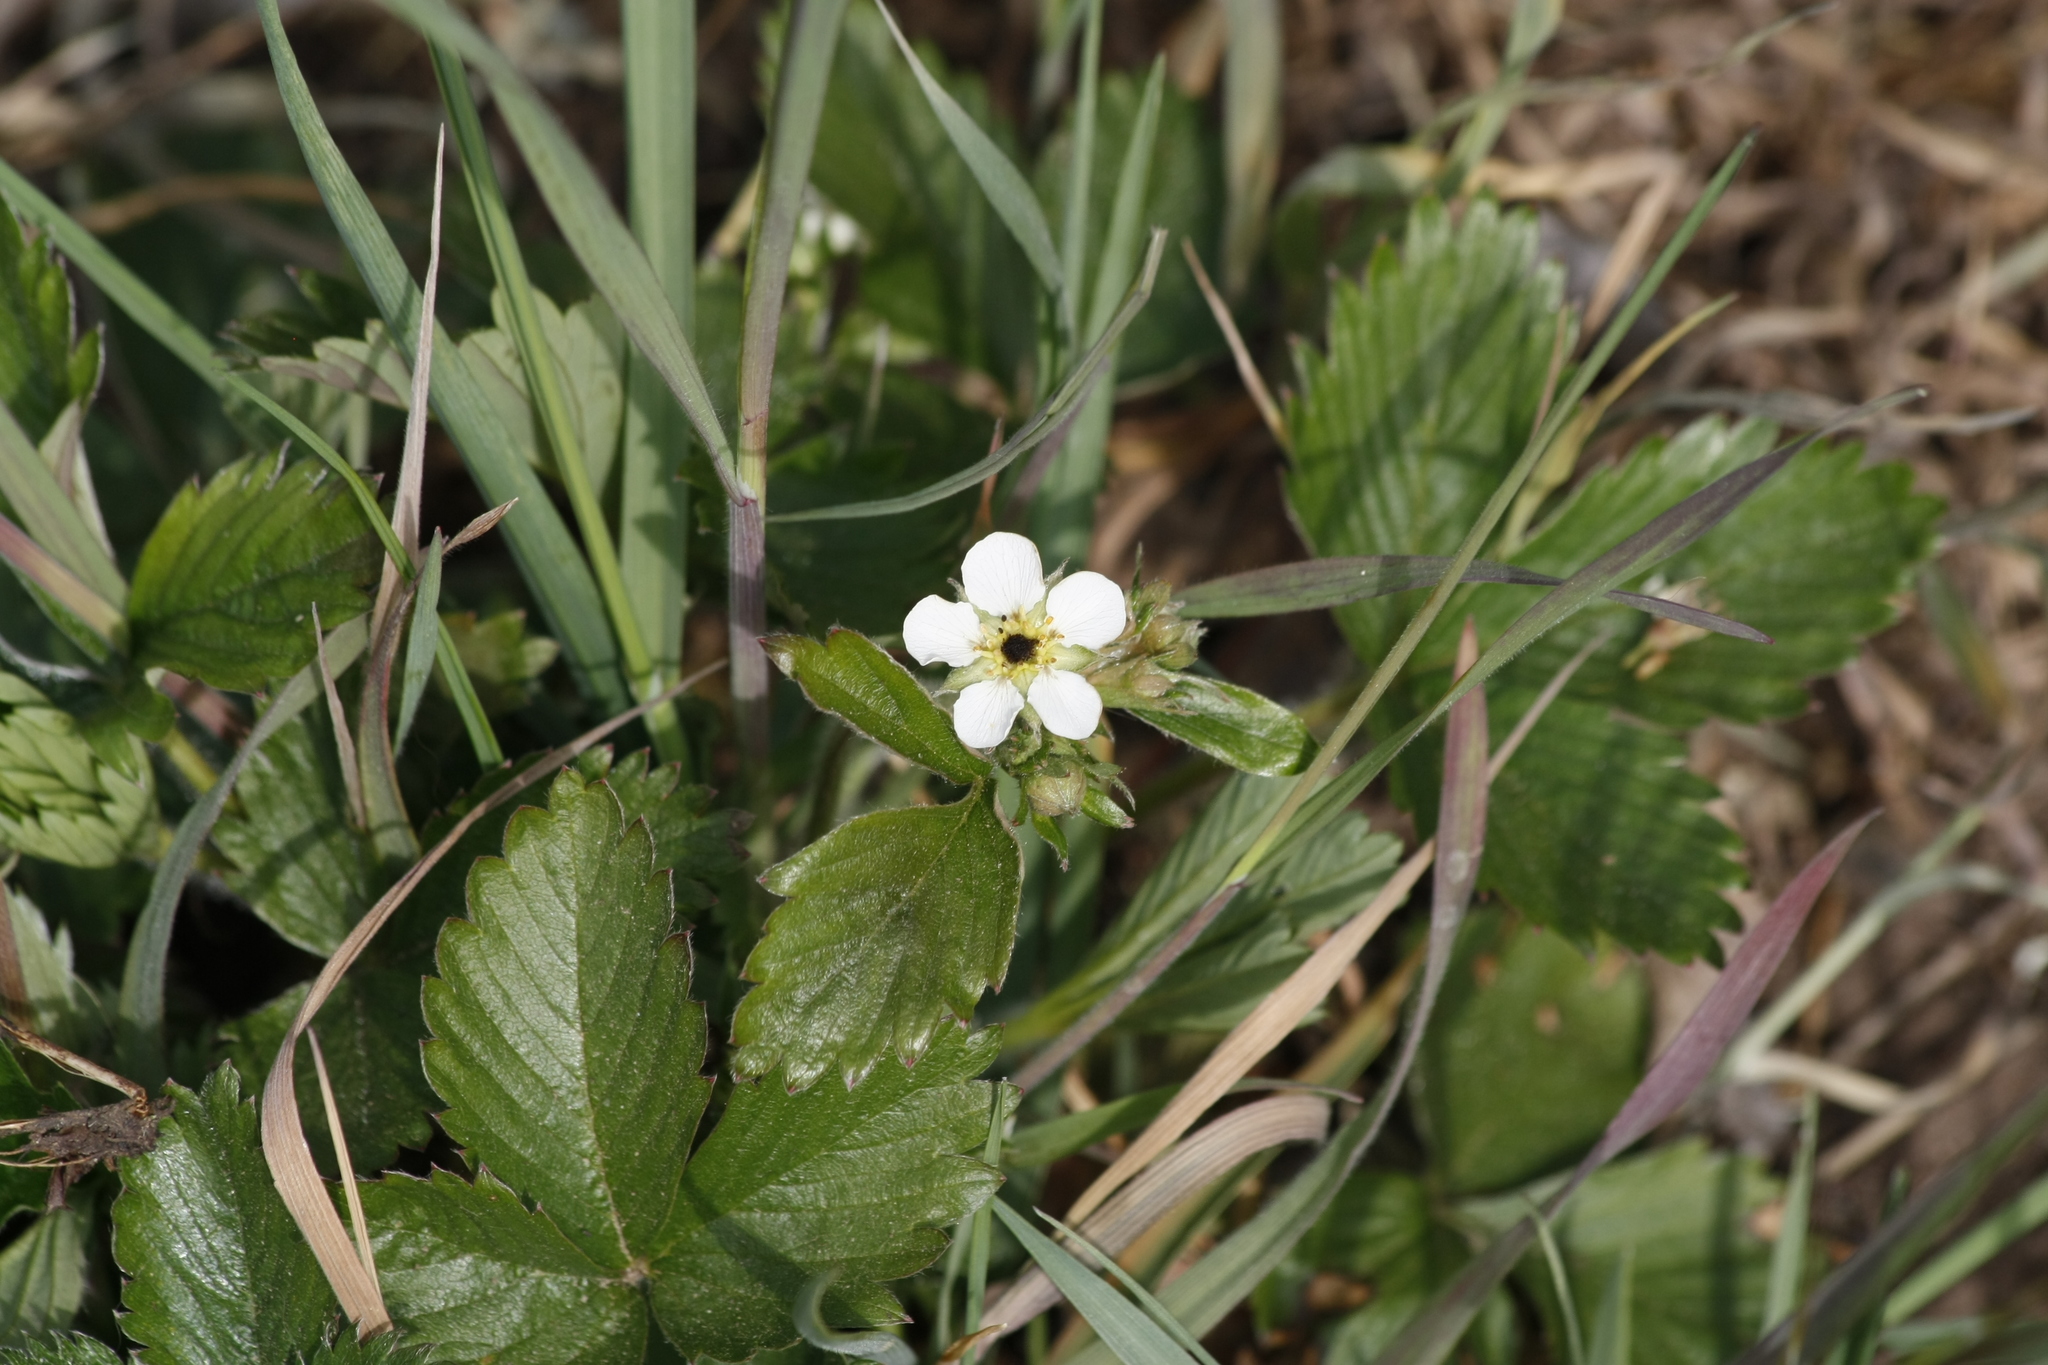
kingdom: Plantae
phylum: Tracheophyta
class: Magnoliopsida
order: Rosales
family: Rosaceae
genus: Potentilla
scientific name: Potentilla sterilis
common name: Barren strawberry
